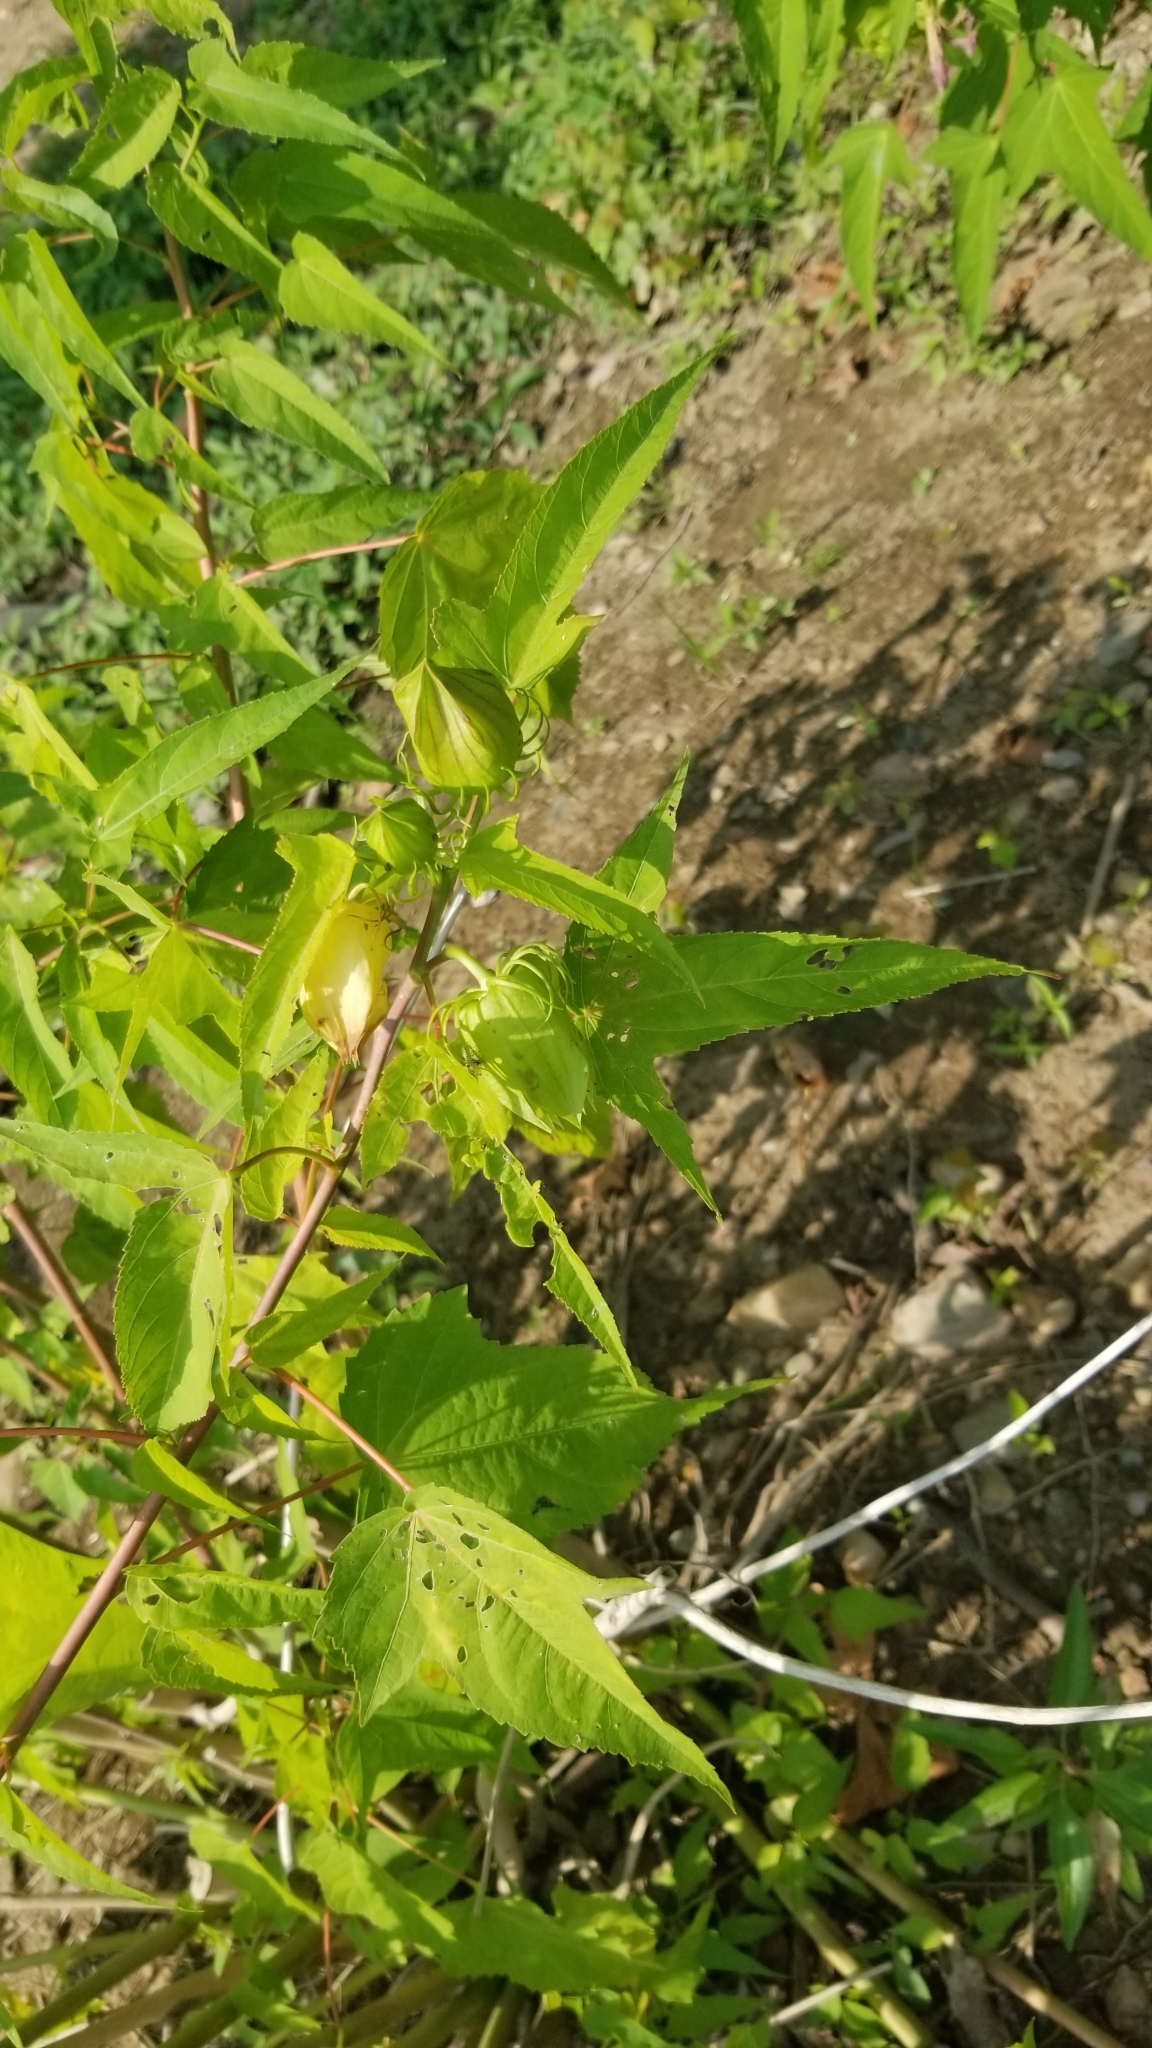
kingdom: Plantae
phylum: Tracheophyta
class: Magnoliopsida
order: Malvales
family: Malvaceae
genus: Hibiscus
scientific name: Hibiscus laevis
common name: Scarlet rose-mallow
